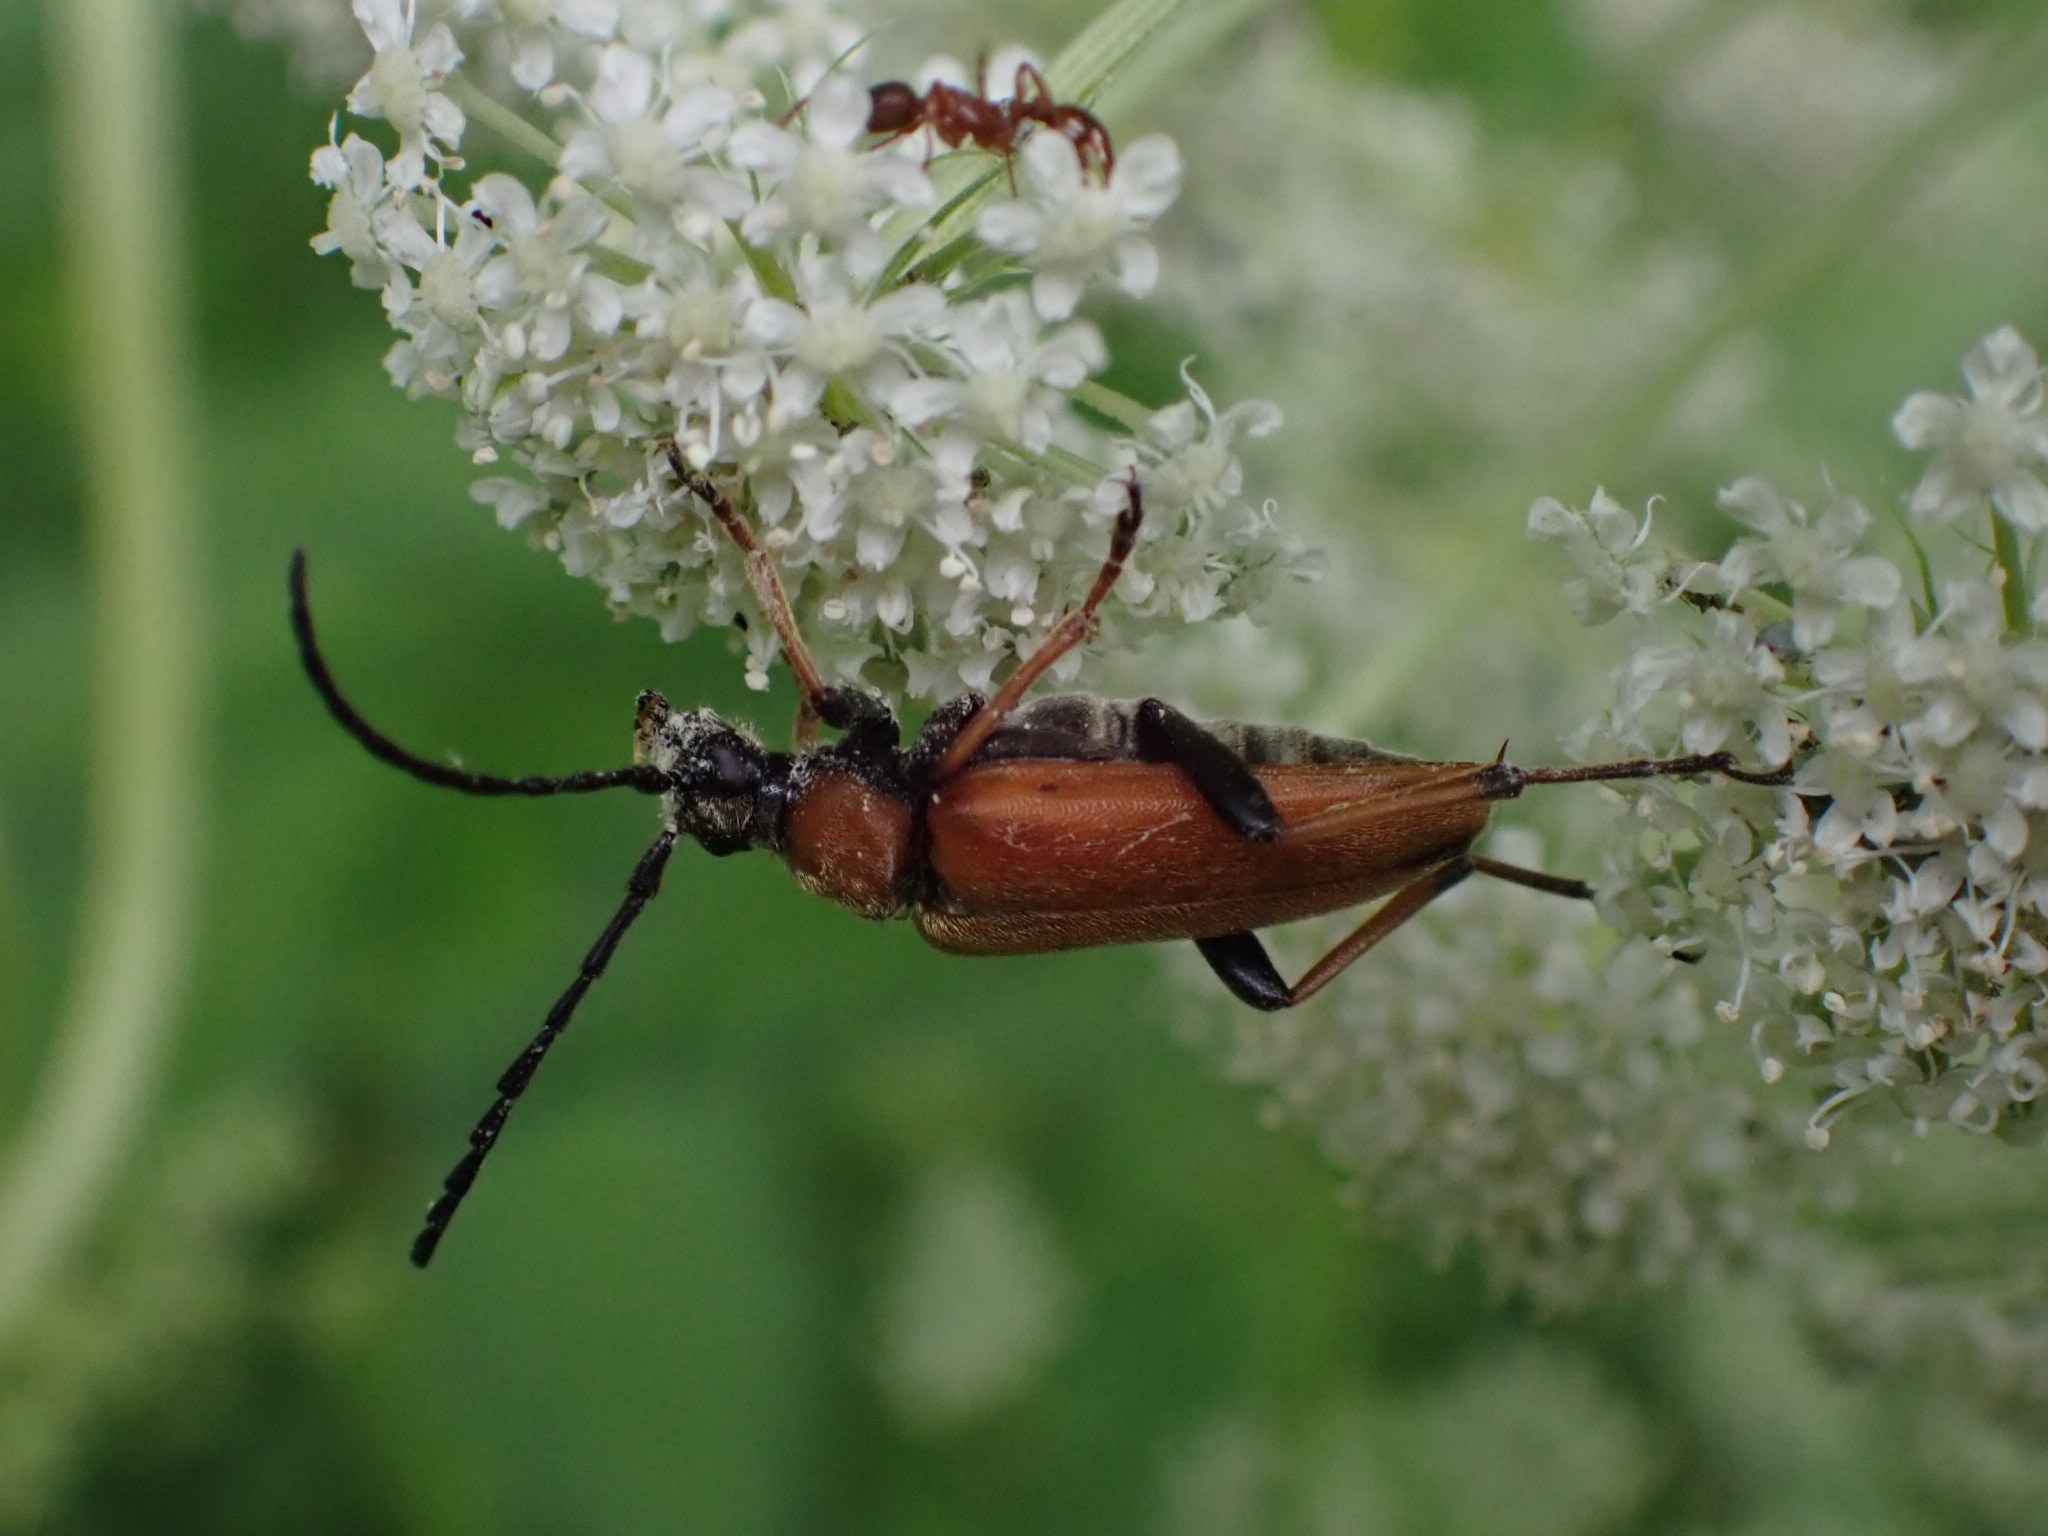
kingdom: Animalia
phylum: Arthropoda
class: Insecta
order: Coleoptera
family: Cerambycidae
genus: Stictoleptura
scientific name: Stictoleptura rubra
